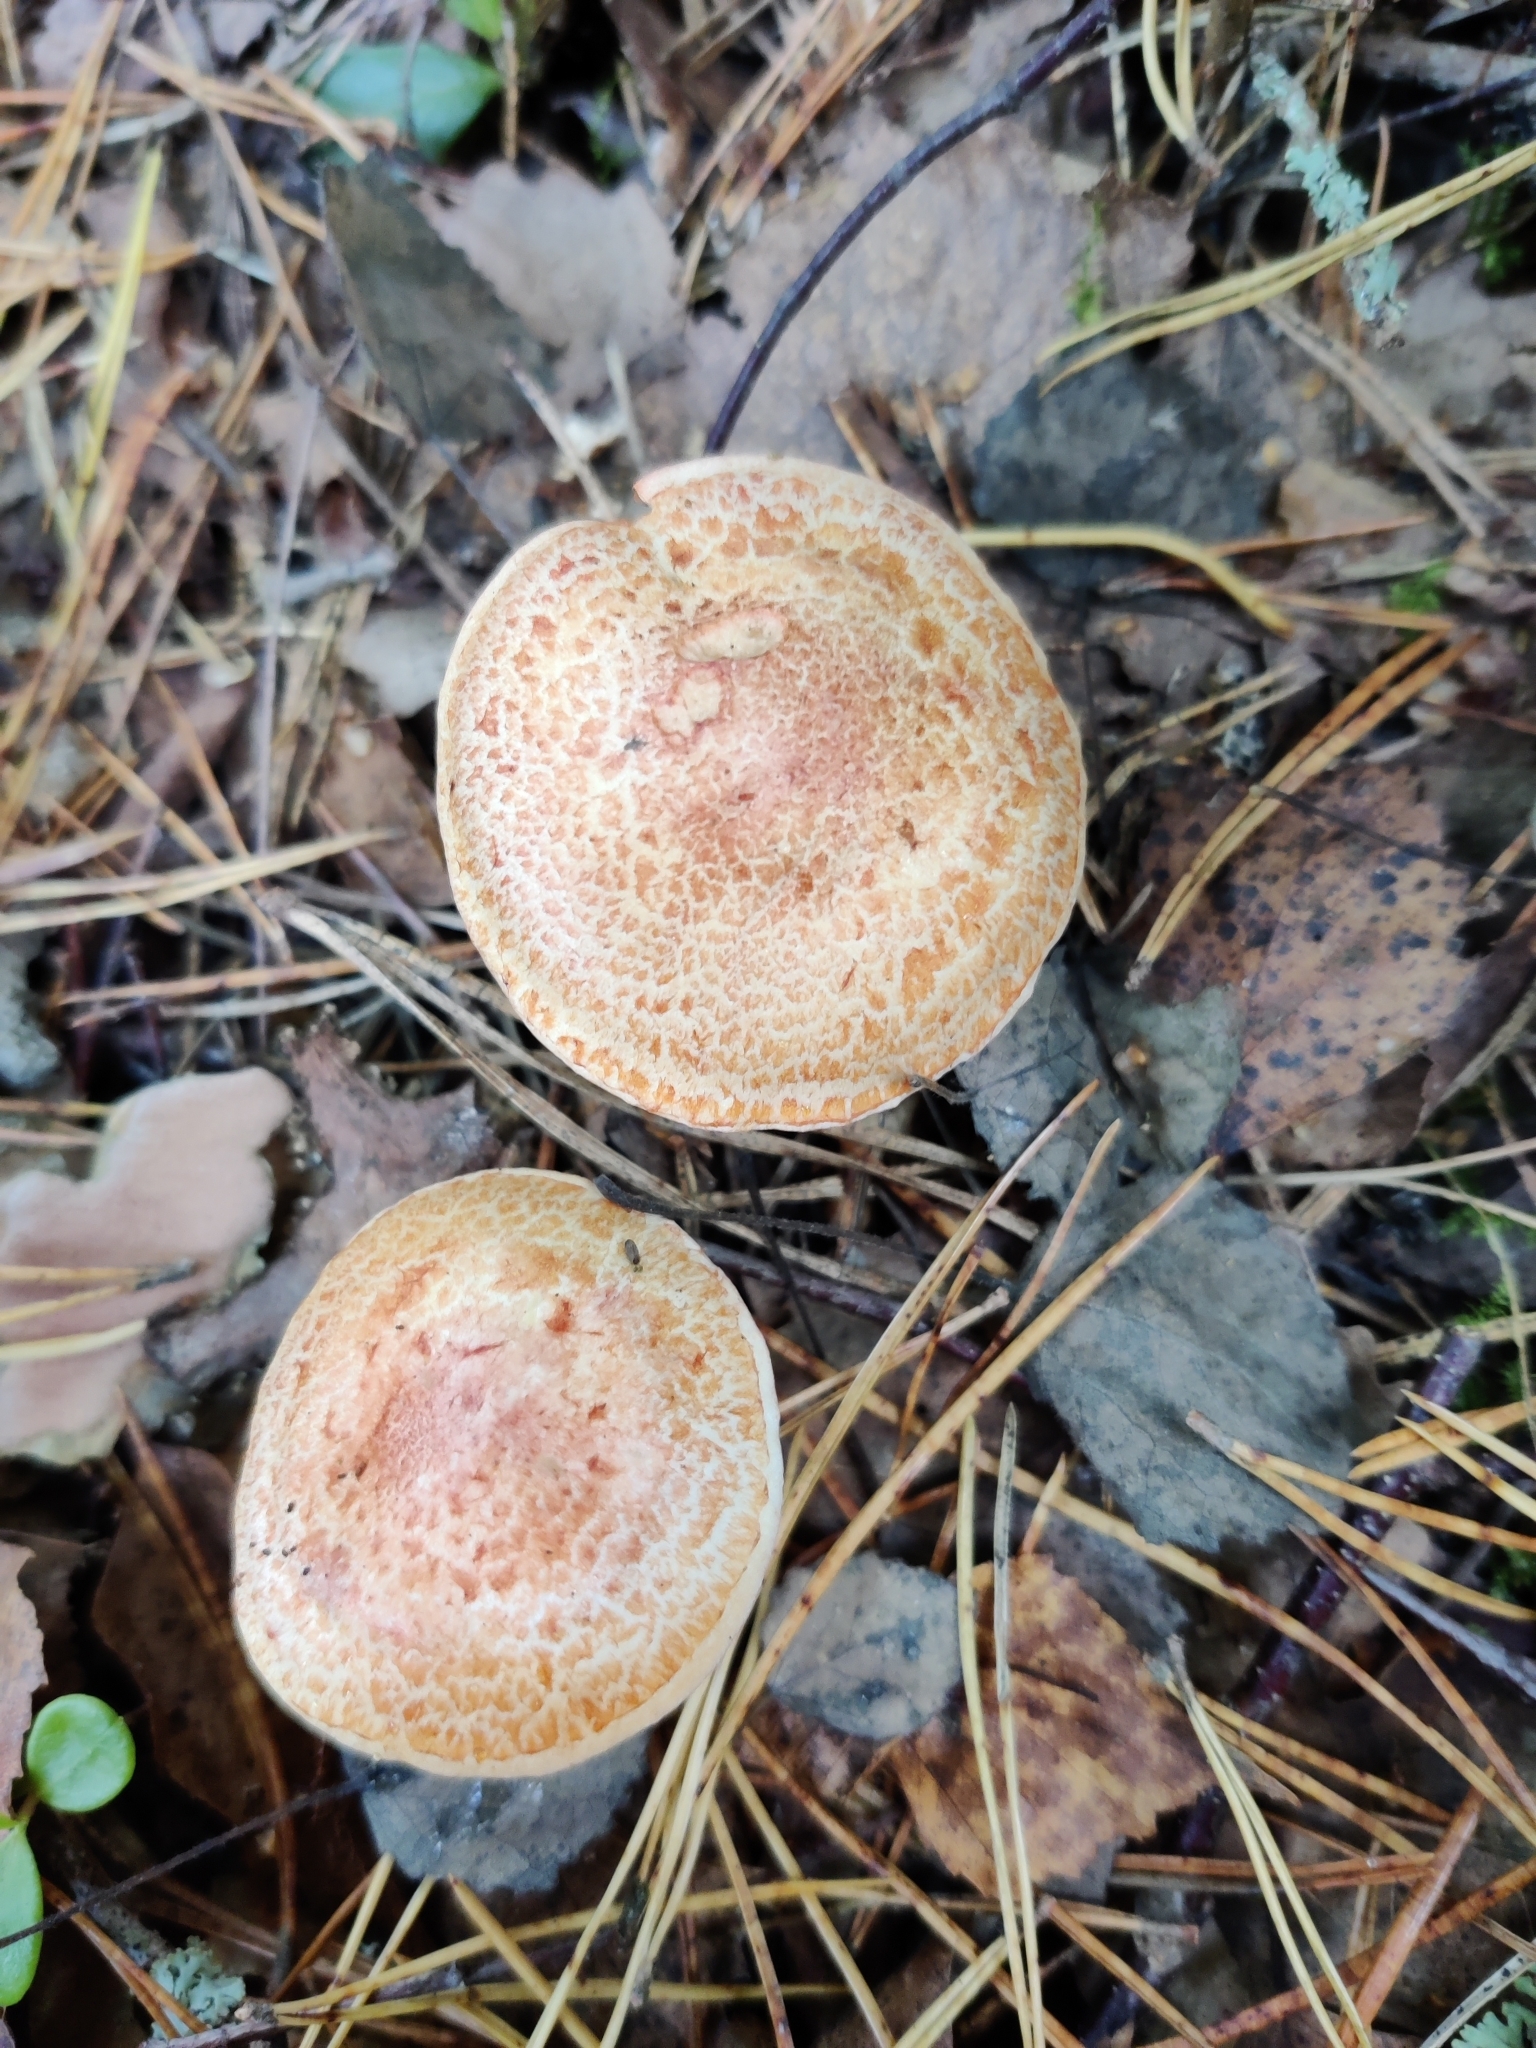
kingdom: Fungi
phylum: Basidiomycota
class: Agaricomycetes
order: Agaricales
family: Cortinariaceae
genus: Cortinarius
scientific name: Cortinarius bolaris
